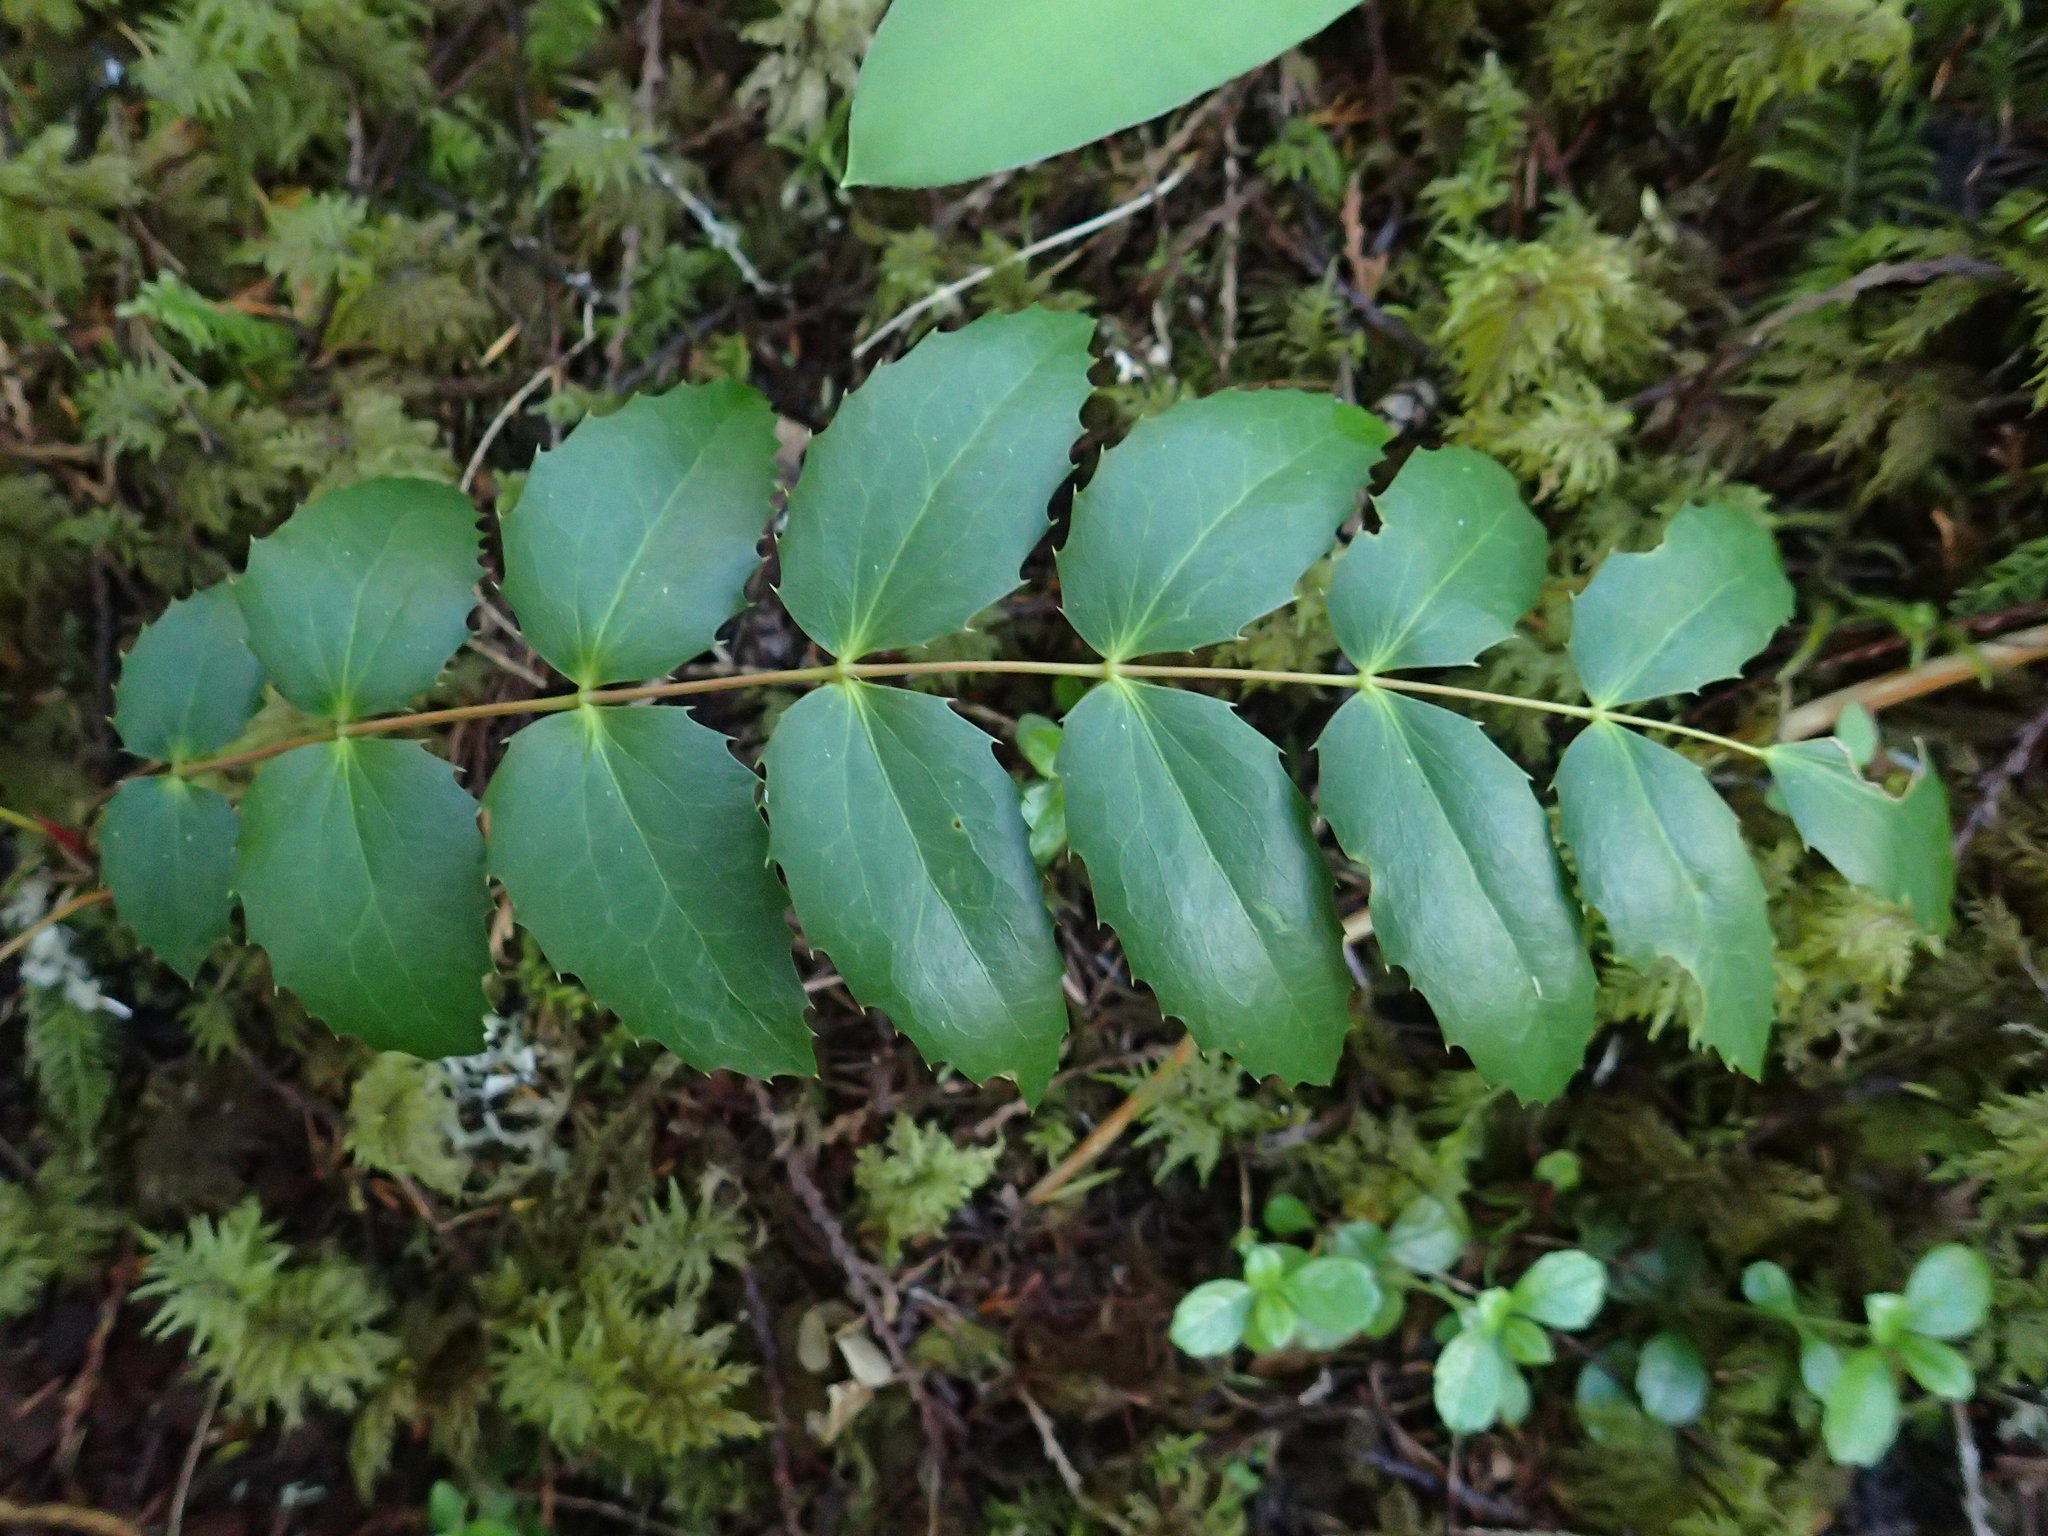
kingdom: Plantae
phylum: Tracheophyta
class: Magnoliopsida
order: Ranunculales
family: Berberidaceae
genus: Mahonia
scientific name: Mahonia nervosa
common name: Cascade oregon-grape
